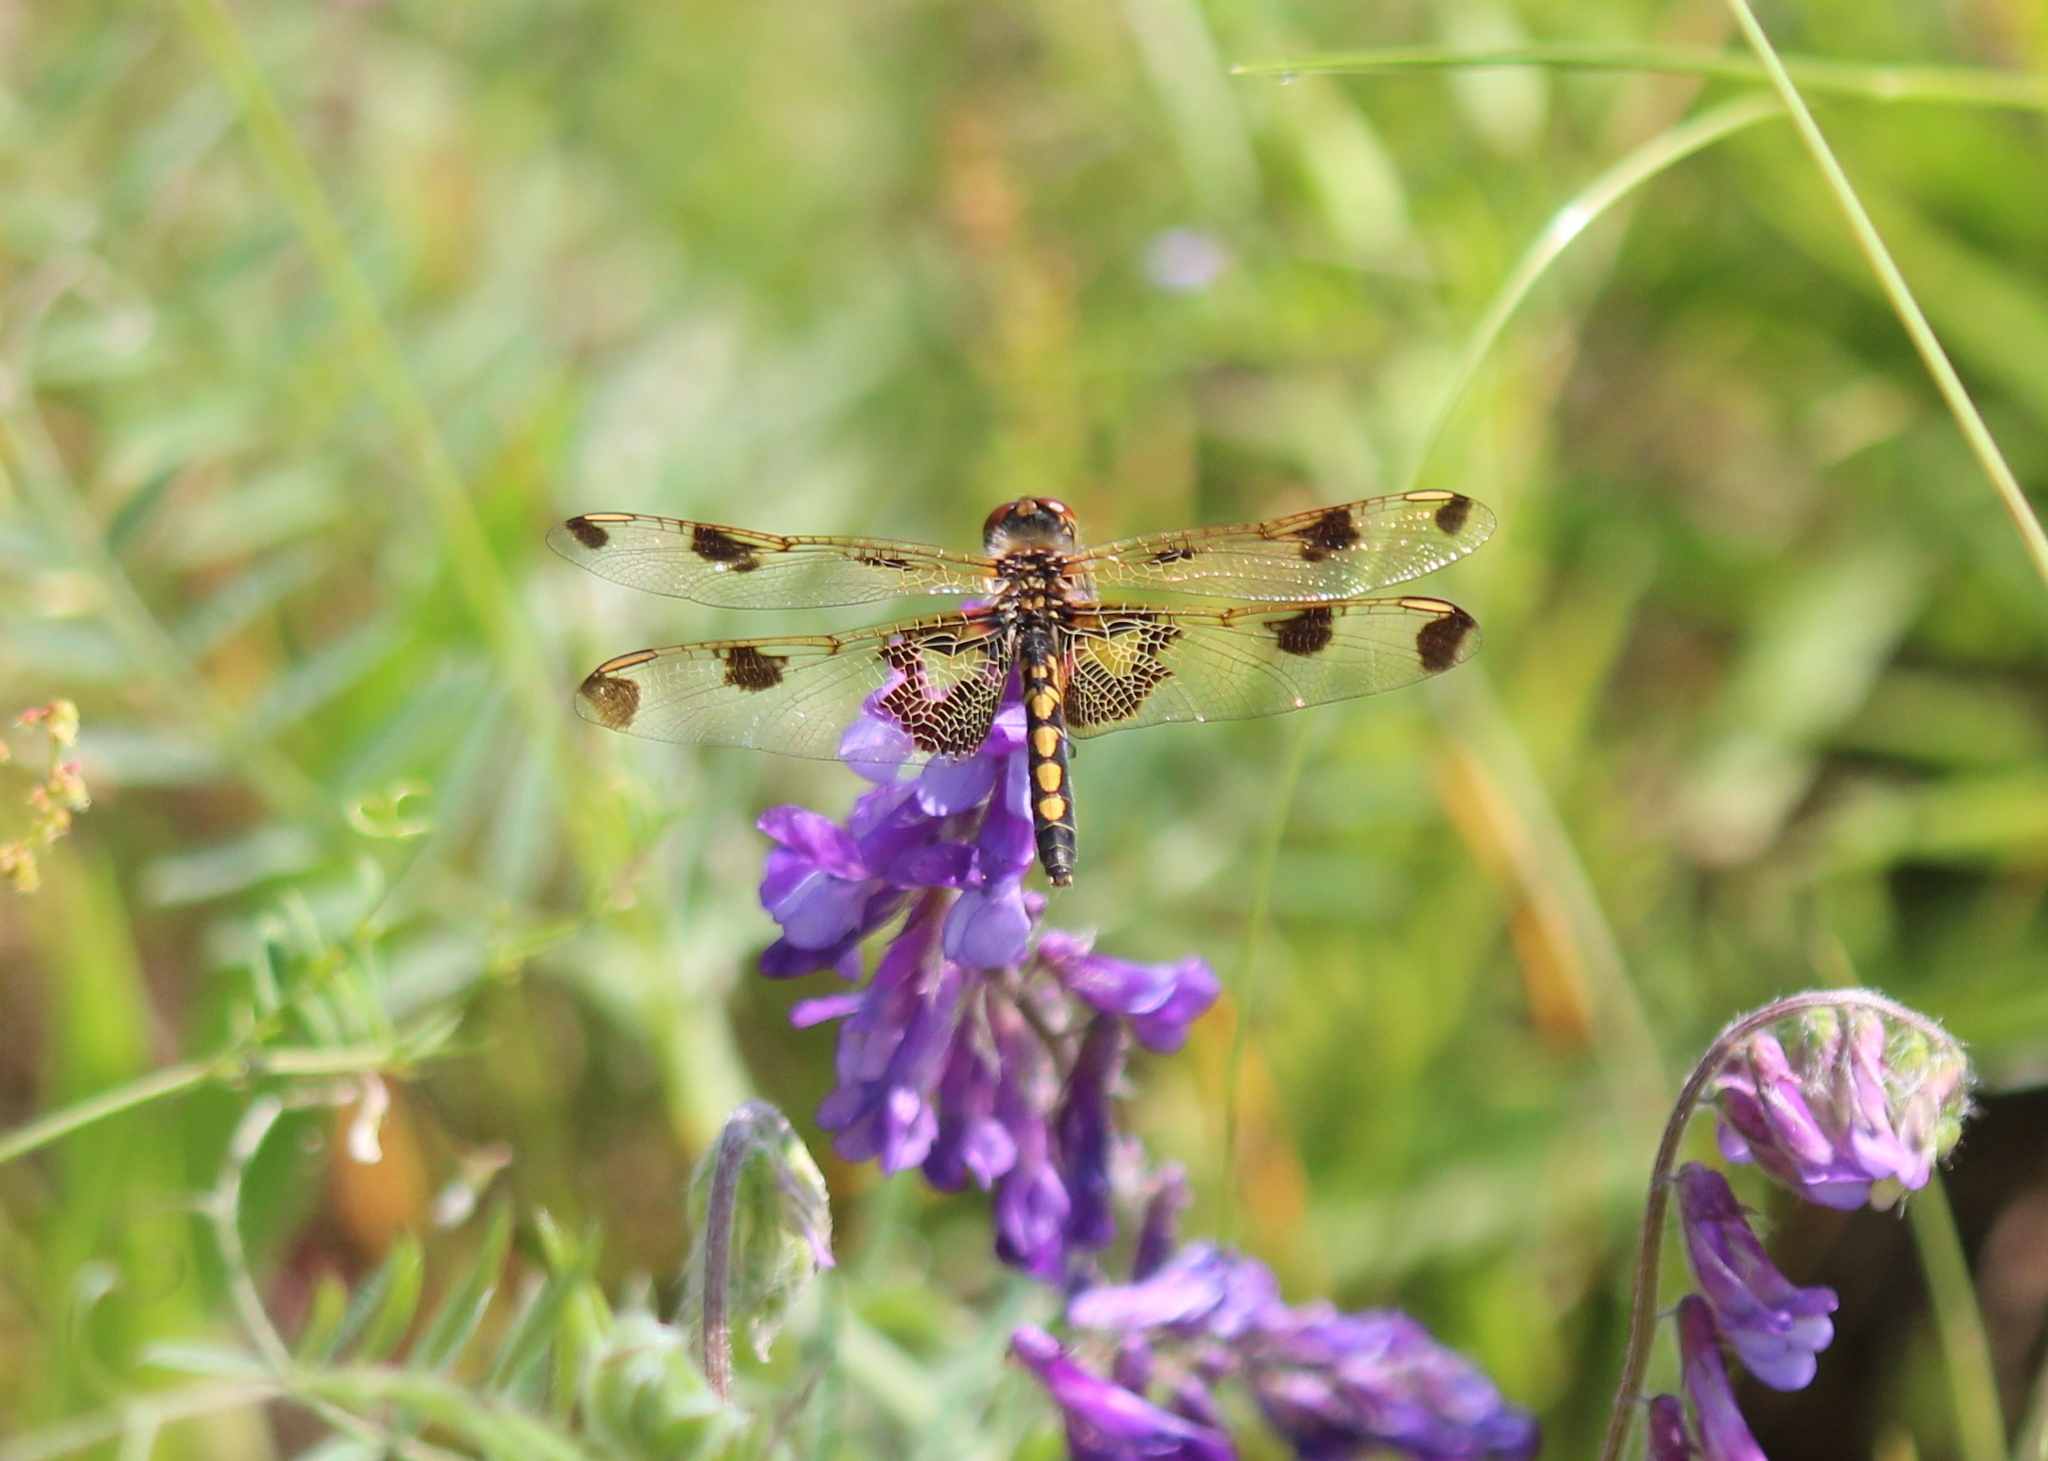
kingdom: Animalia
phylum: Arthropoda
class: Insecta
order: Odonata
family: Libellulidae
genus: Celithemis
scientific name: Celithemis elisa
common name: Calico pennant
